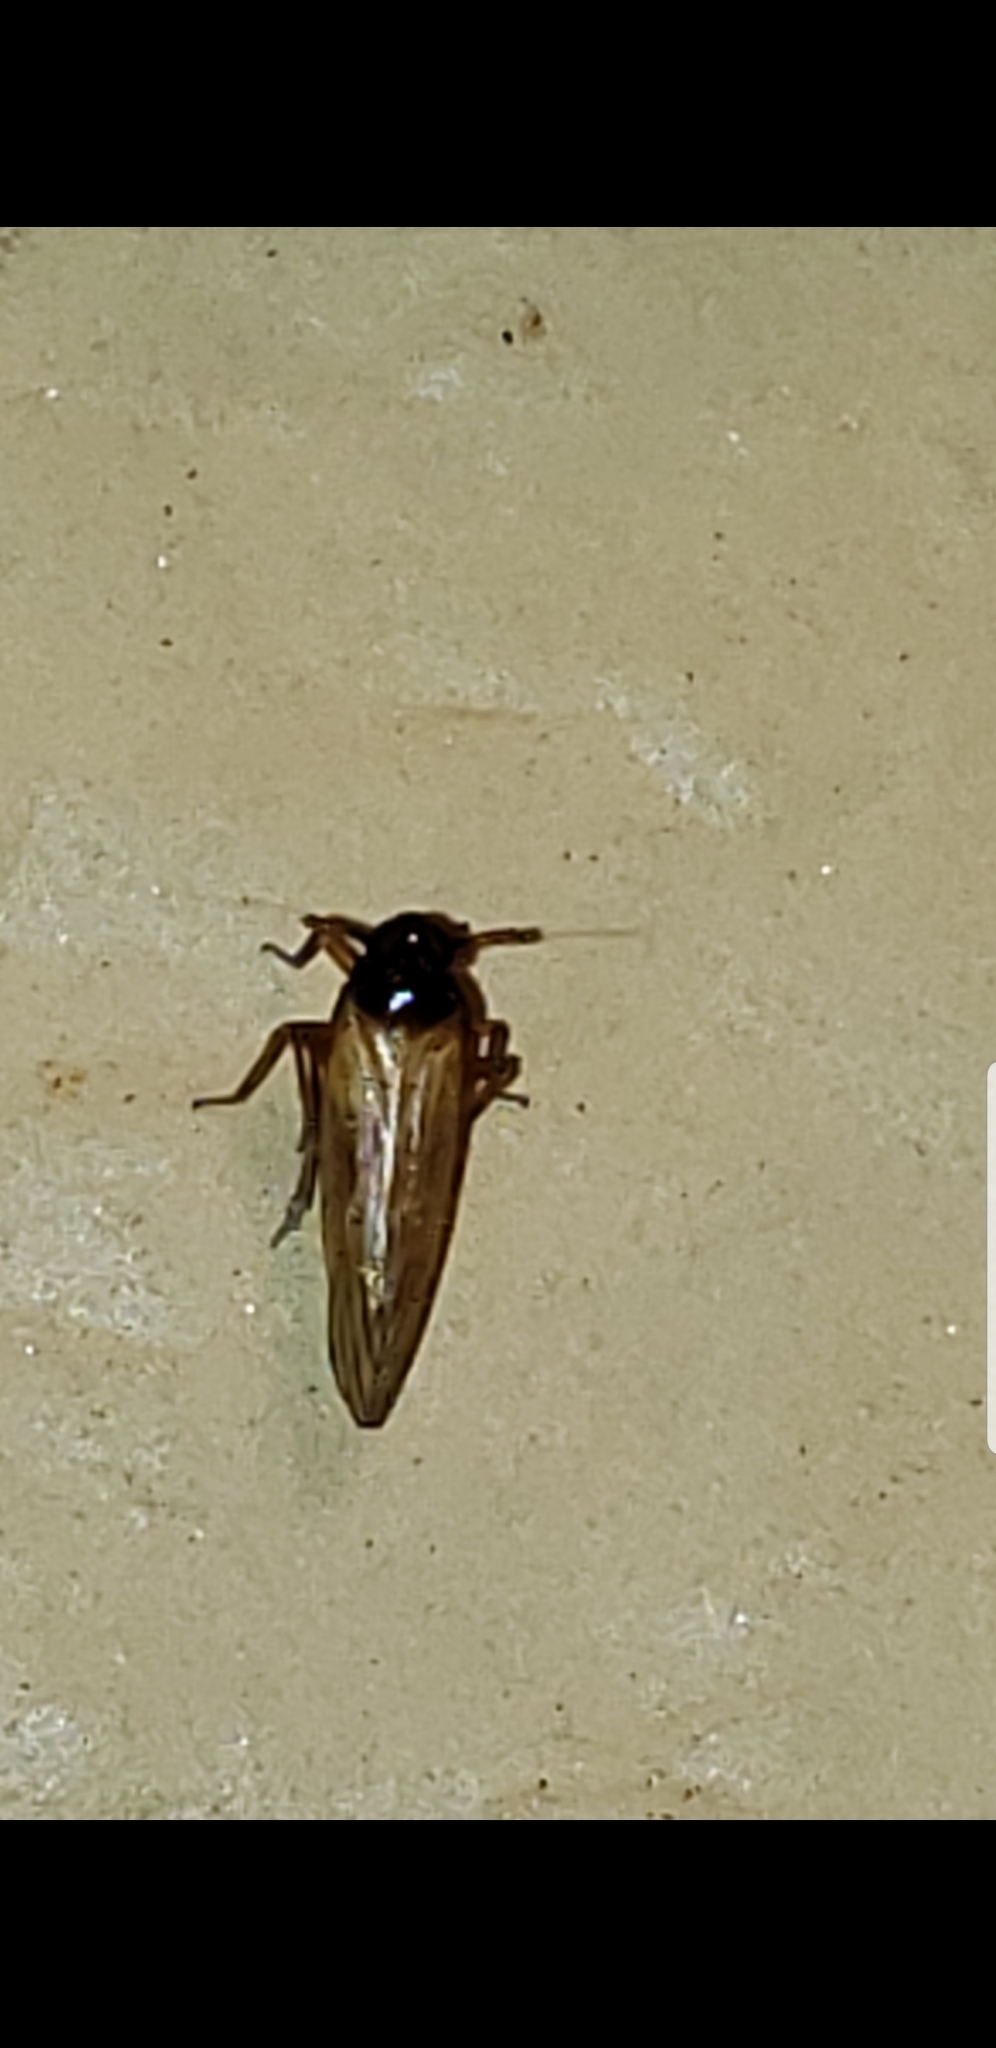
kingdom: Animalia
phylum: Arthropoda
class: Insecta
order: Hemiptera
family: Delphacidae
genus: Penepissonotus
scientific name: Penepissonotus bicolor
